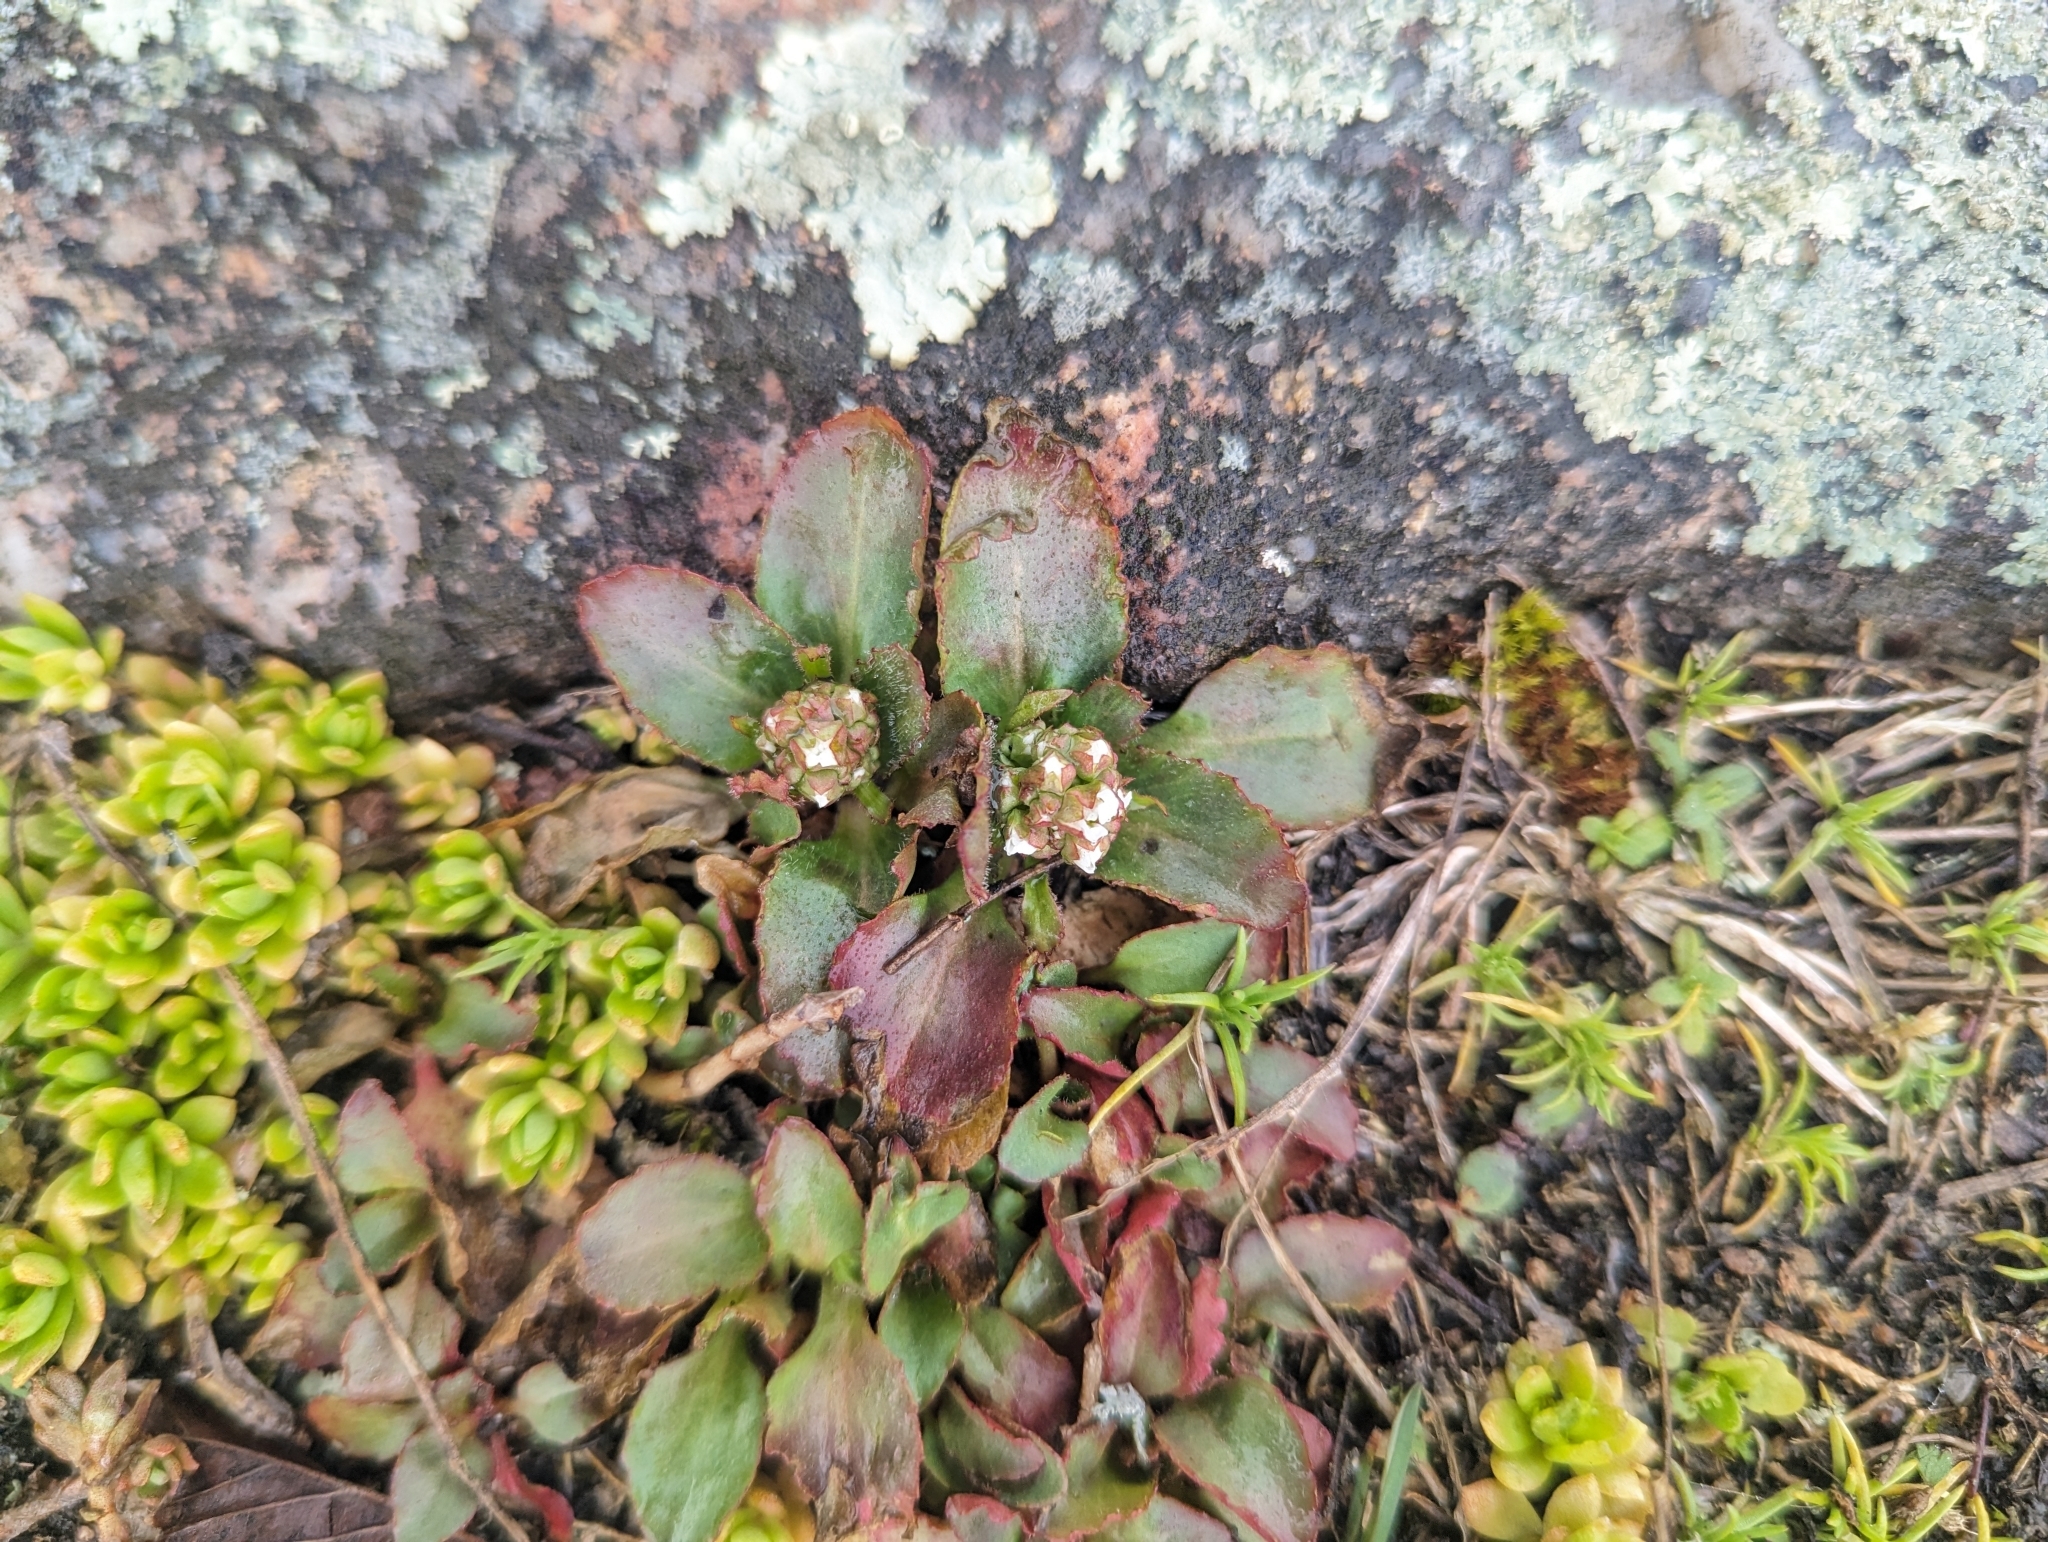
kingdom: Plantae
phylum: Tracheophyta
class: Magnoliopsida
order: Saxifragales
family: Saxifragaceae
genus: Micranthes
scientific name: Micranthes virginiensis
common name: Early saxifrage
